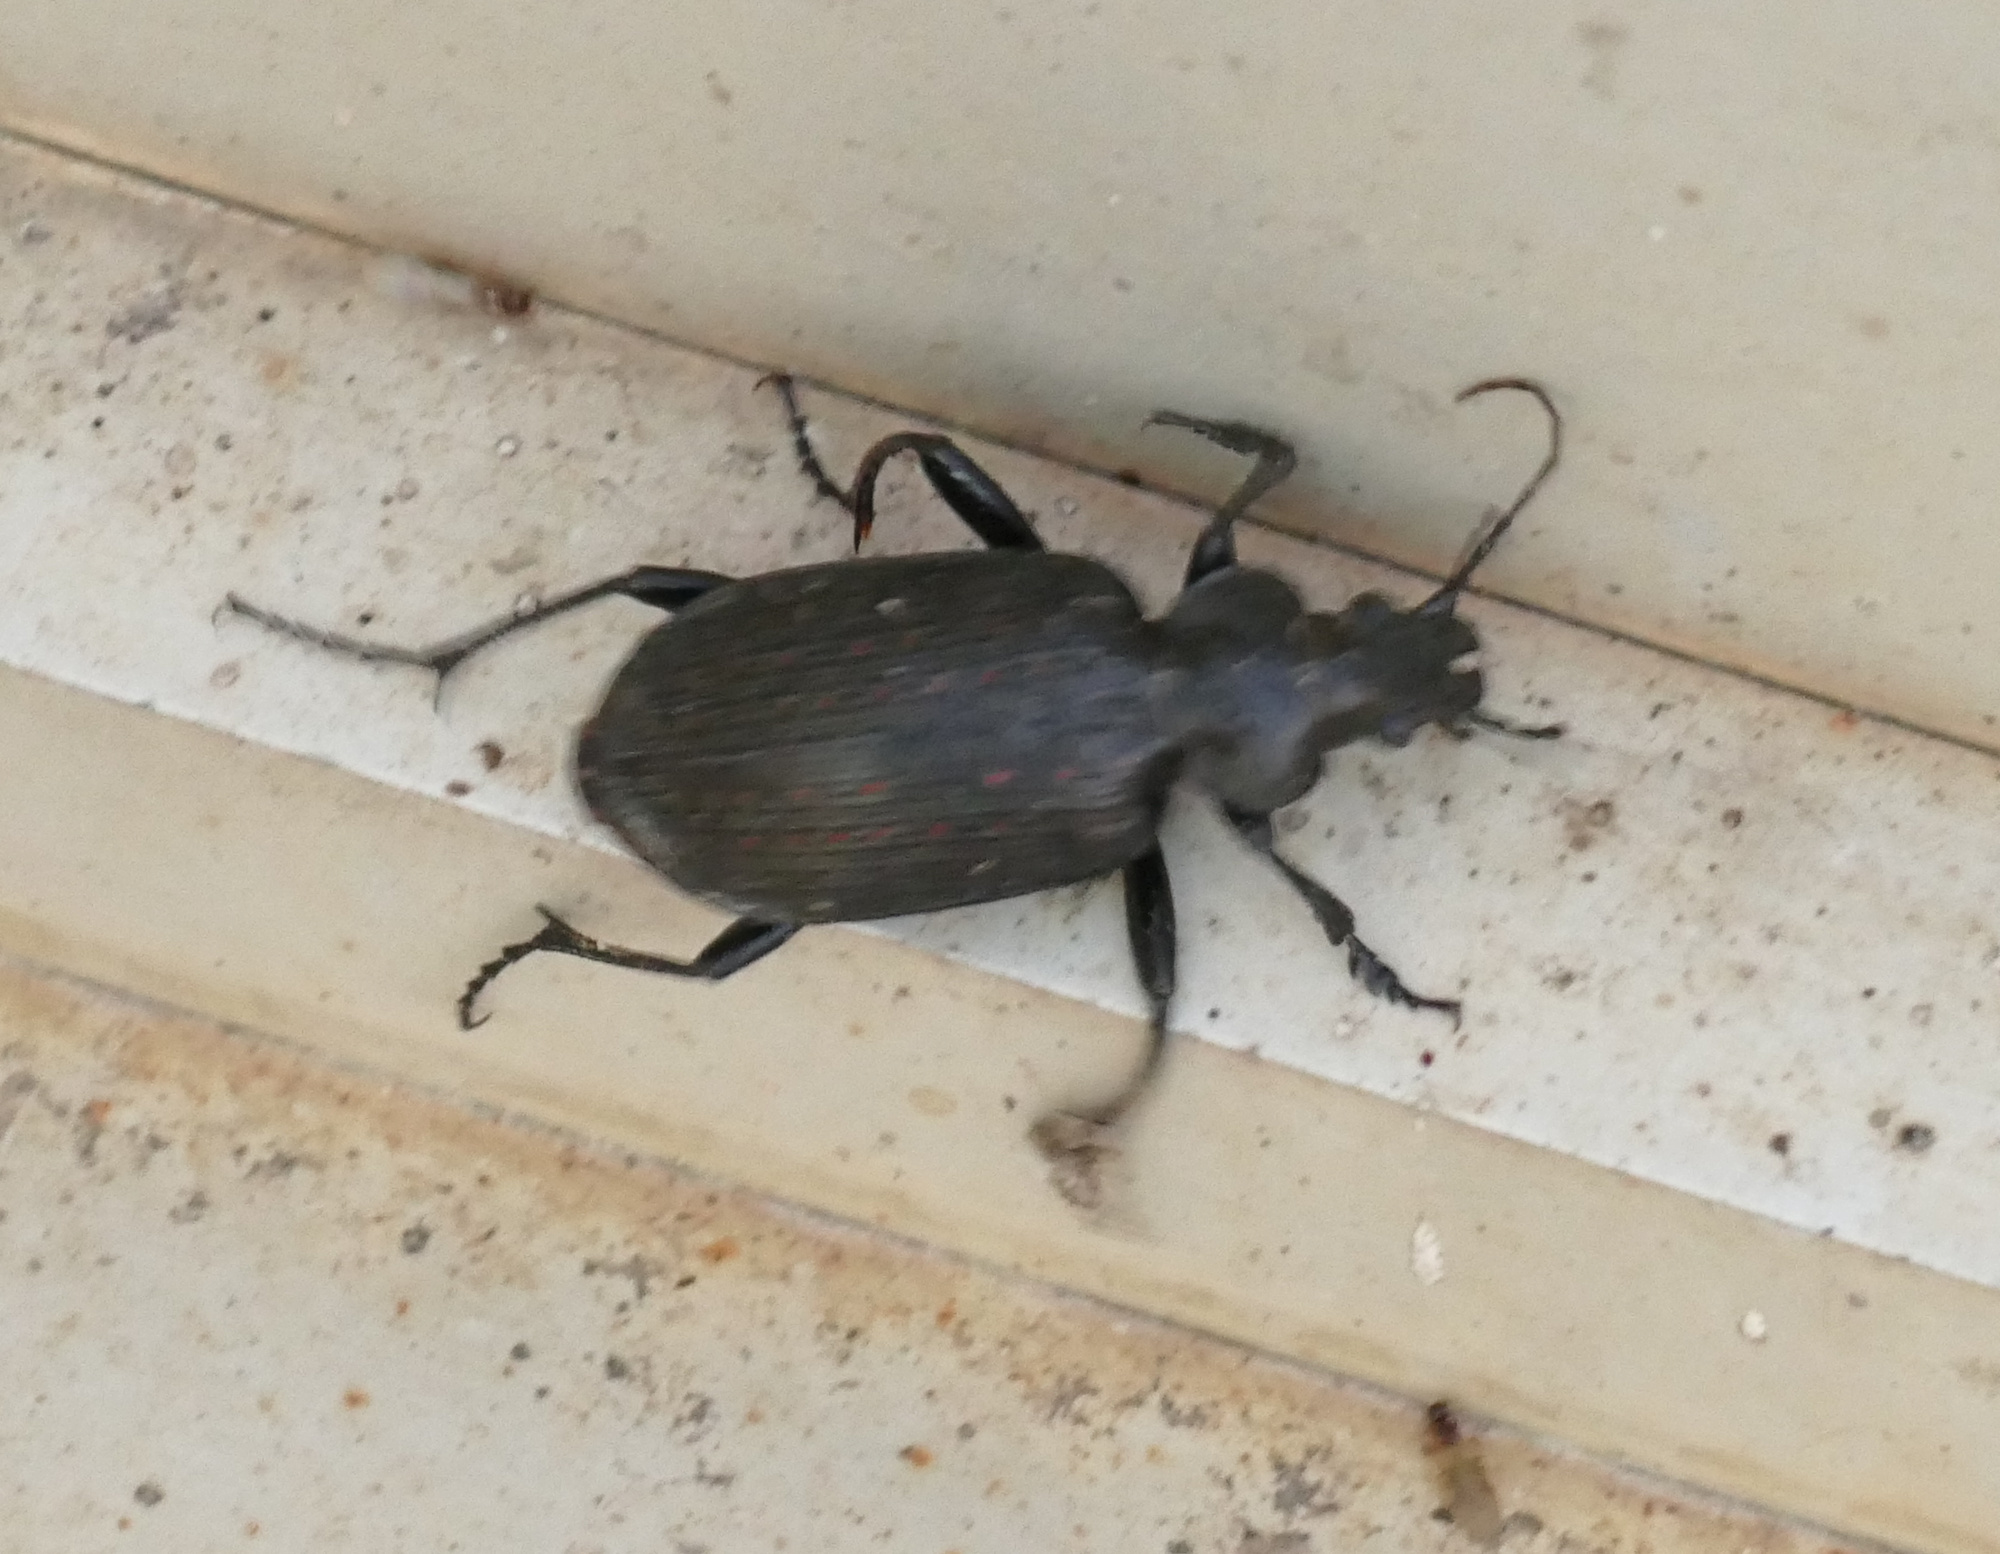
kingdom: Animalia
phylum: Arthropoda
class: Insecta
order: Coleoptera
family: Carabidae
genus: Calosoma
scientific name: Calosoma sayi
